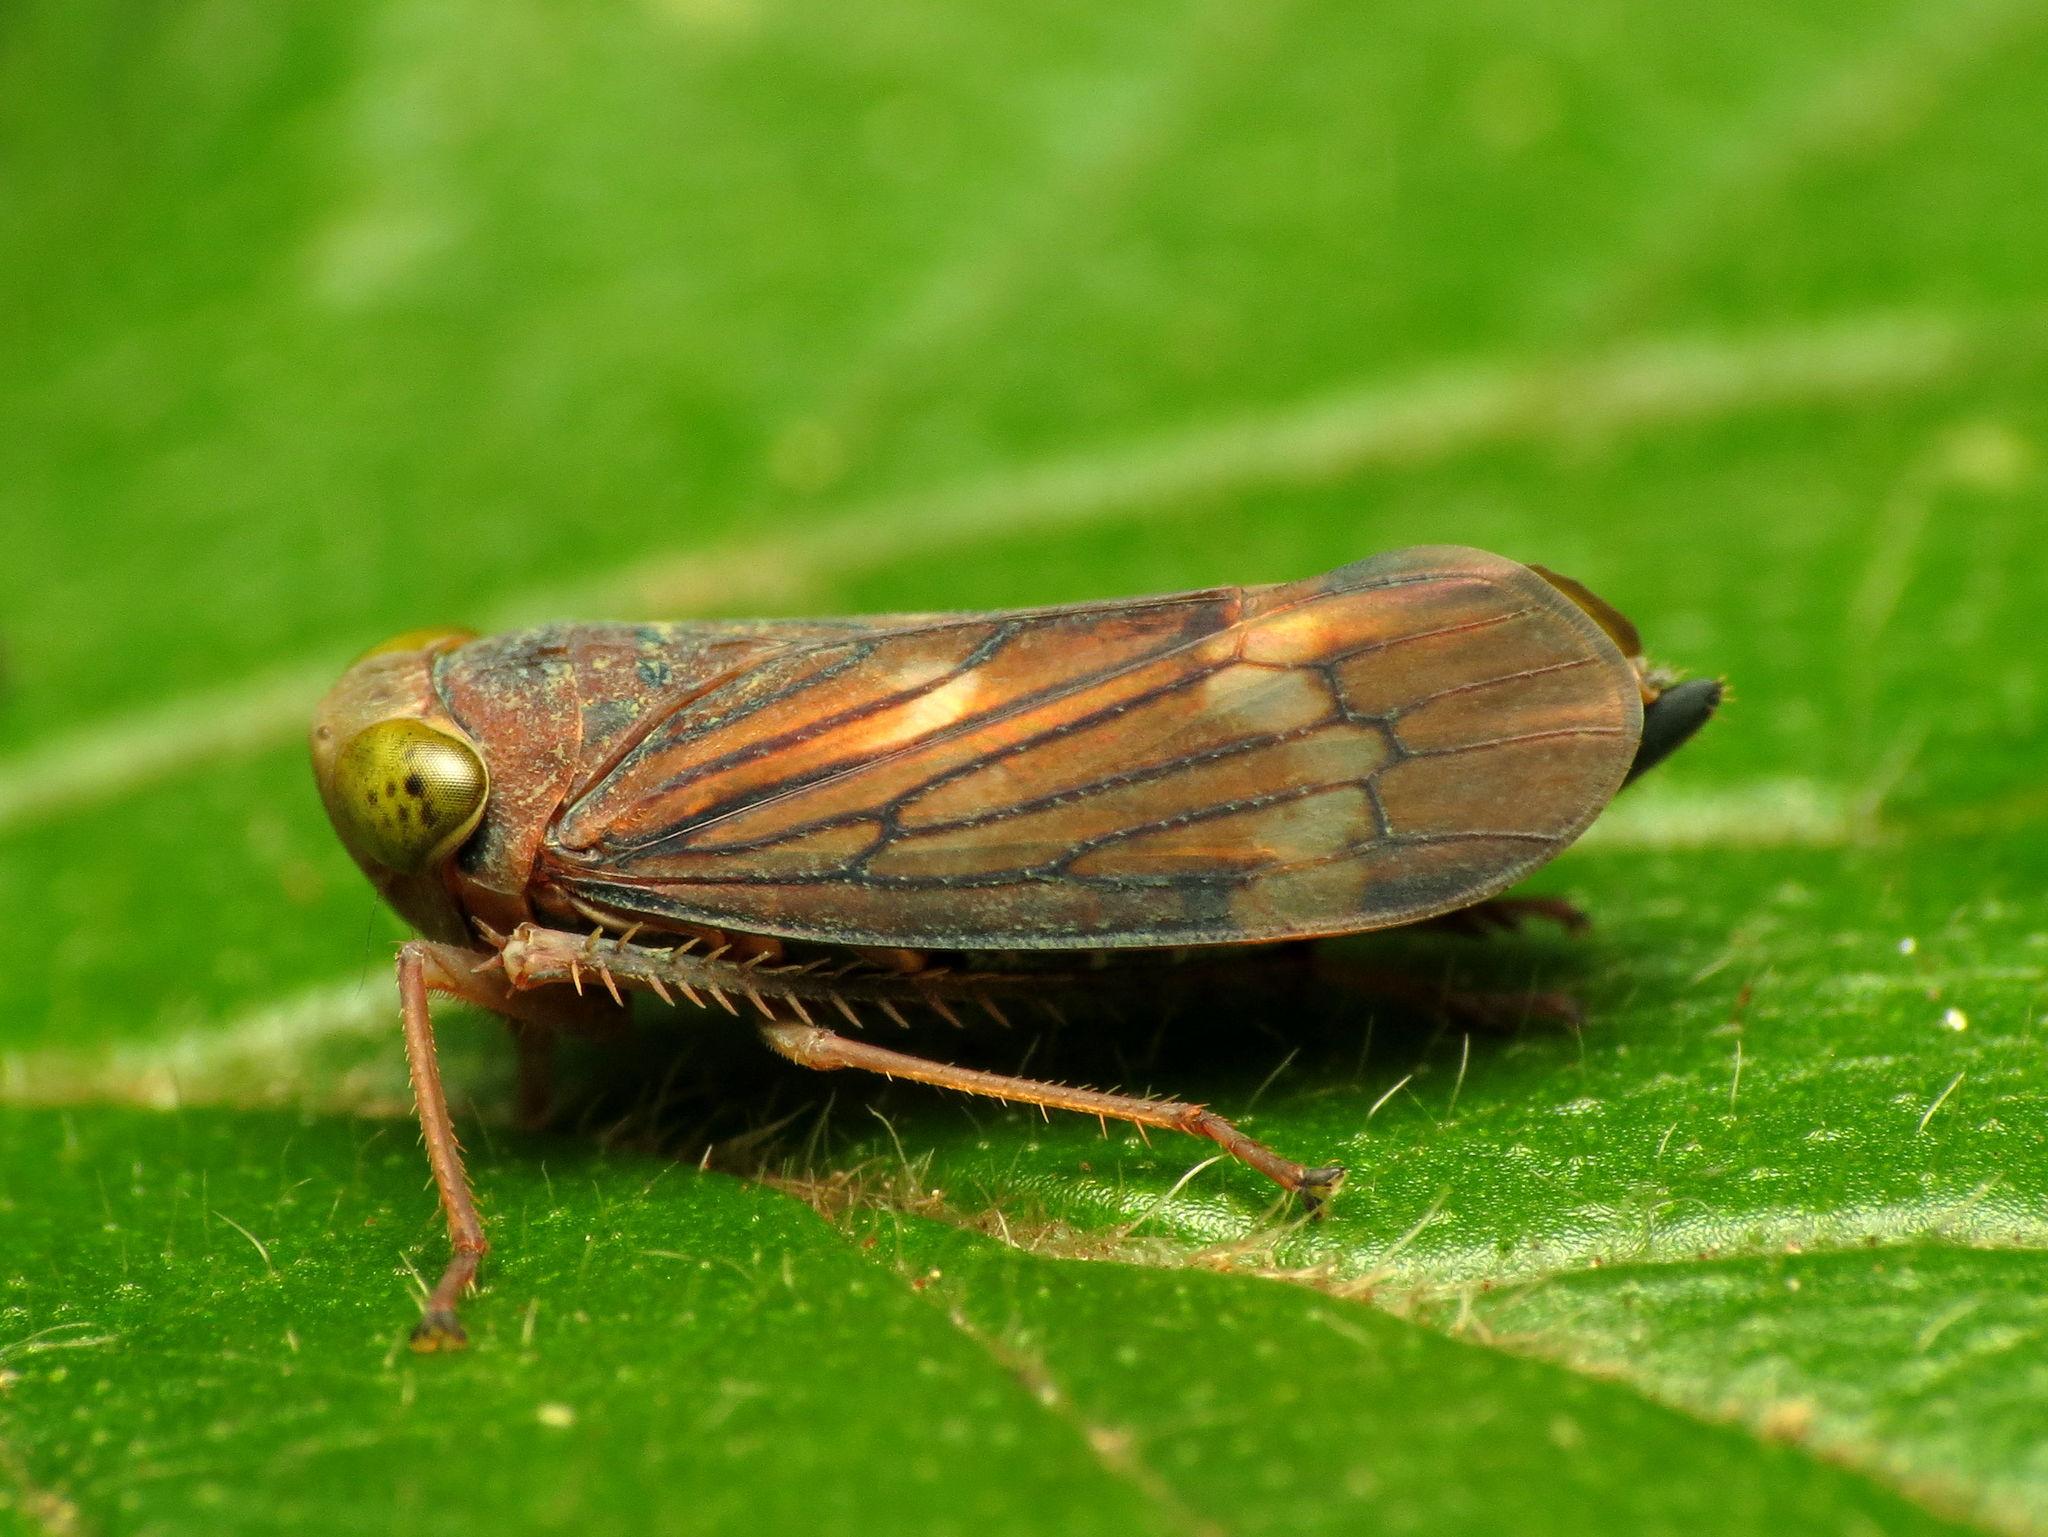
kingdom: Animalia
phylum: Arthropoda
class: Insecta
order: Hemiptera
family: Cicadellidae
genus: Jikradia
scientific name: Jikradia olitoria
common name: Coppery leafhopper
